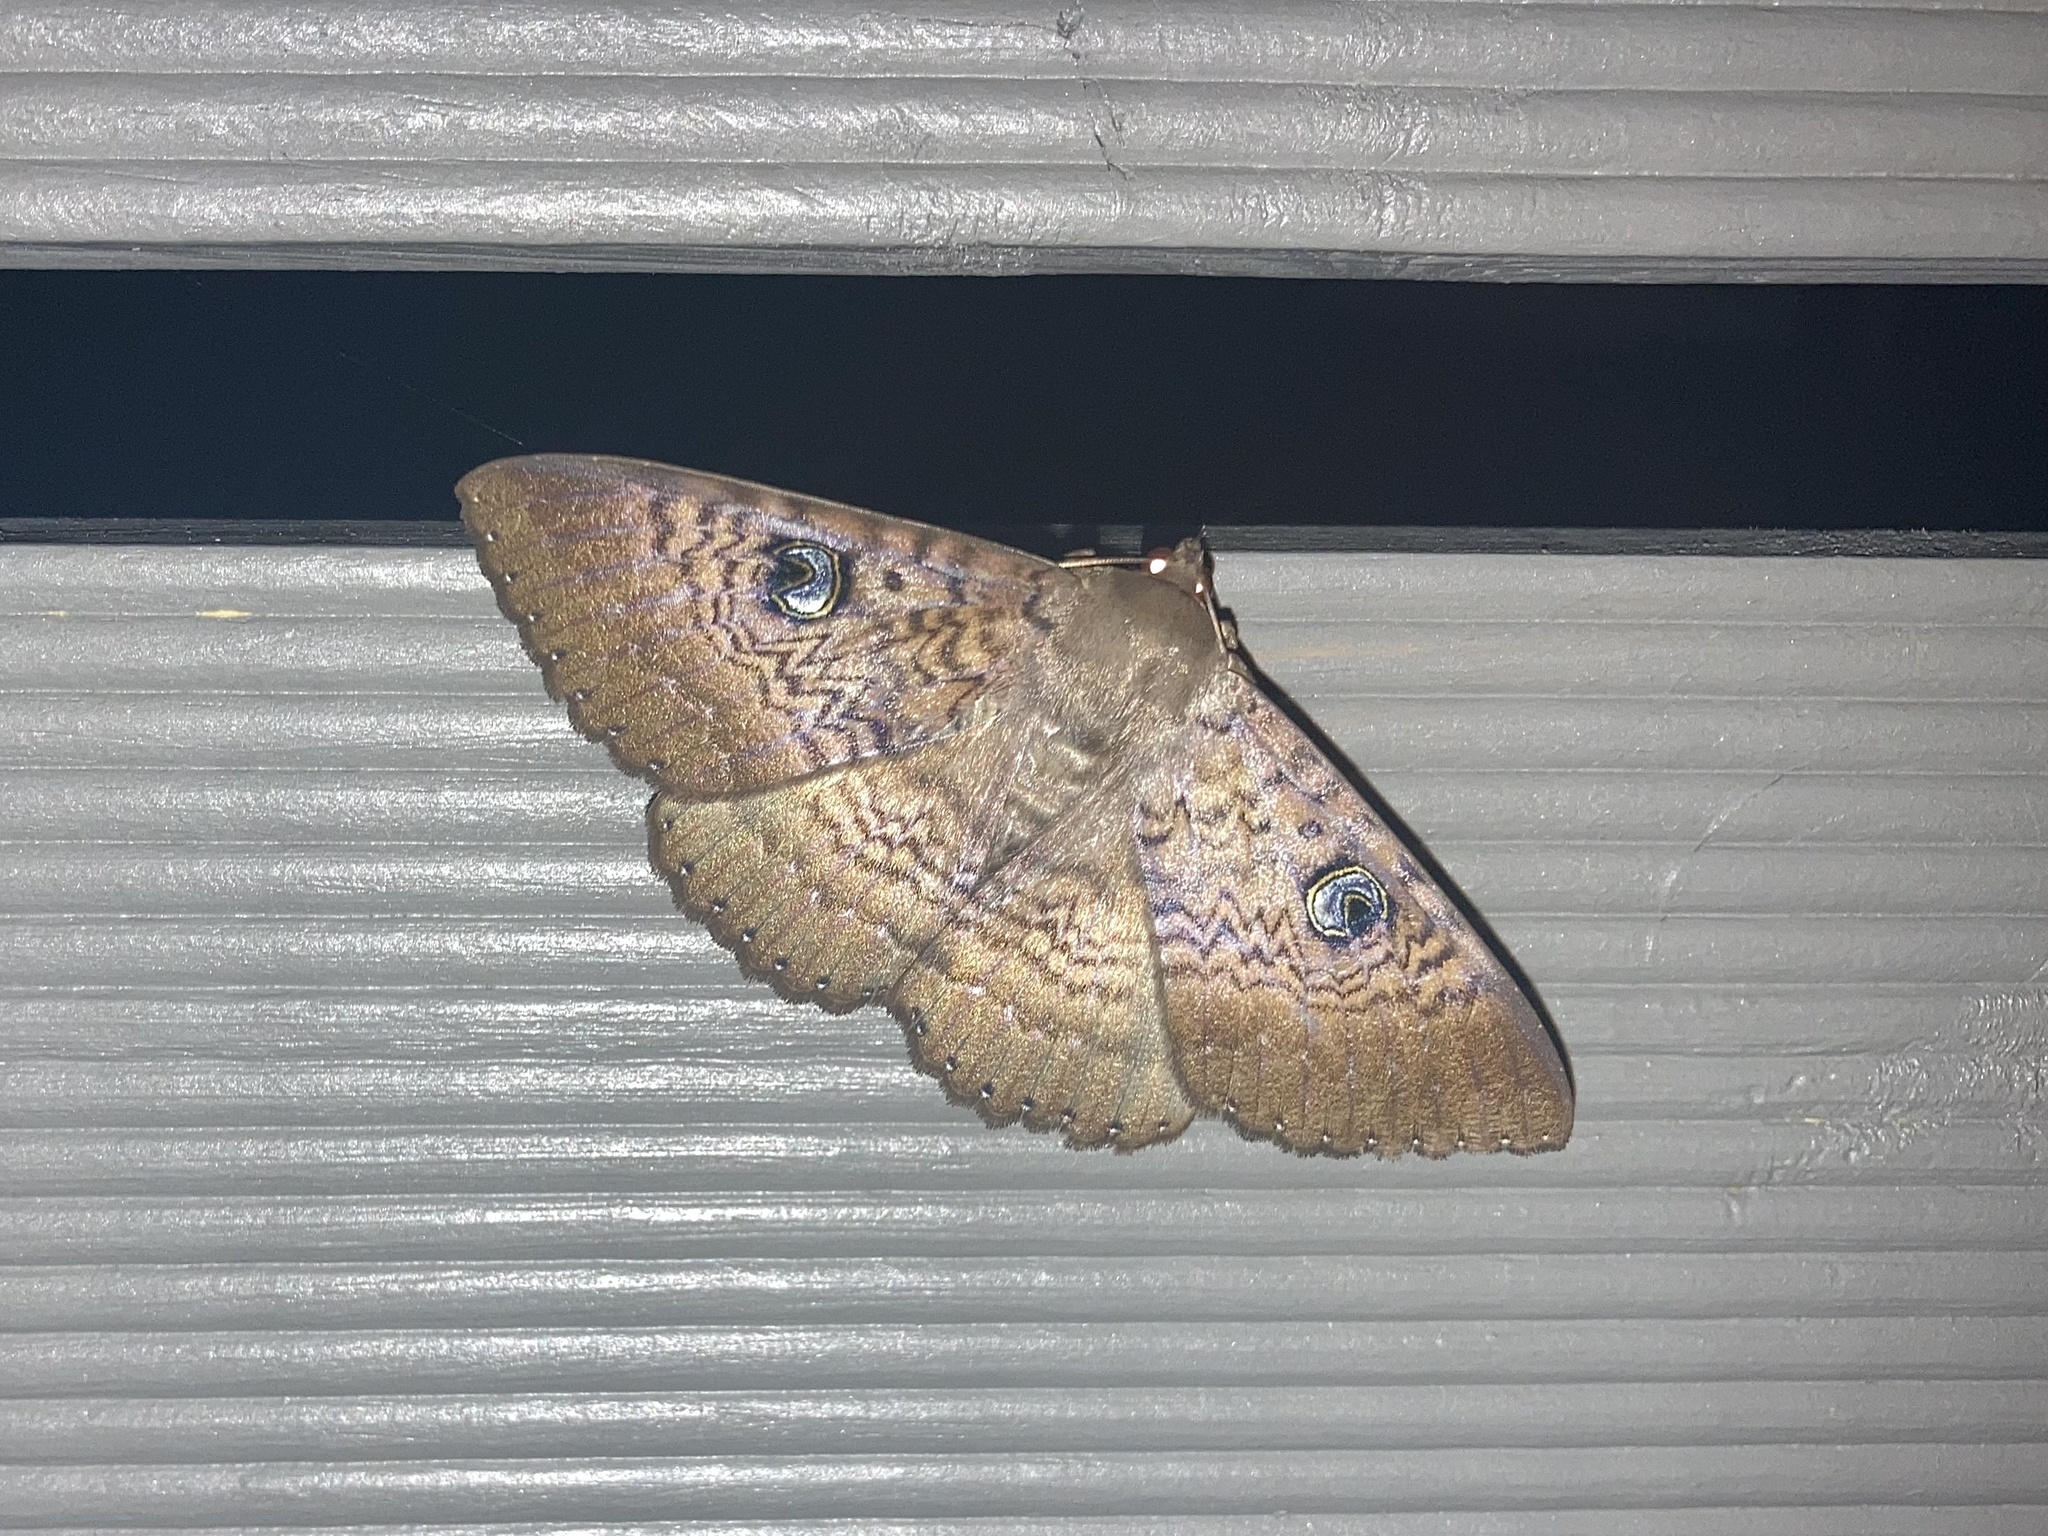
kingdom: Animalia
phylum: Arthropoda
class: Insecta
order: Lepidoptera
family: Erebidae
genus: Dasypodia
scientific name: Dasypodia cymatodes
